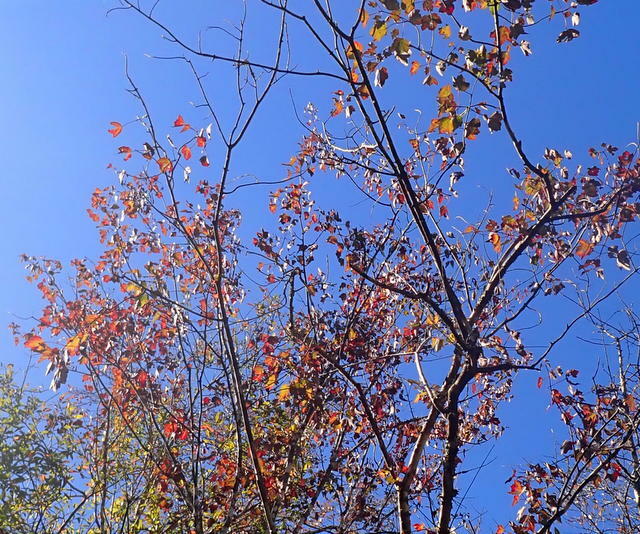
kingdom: Plantae
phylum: Tracheophyta
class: Magnoliopsida
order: Sapindales
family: Sapindaceae
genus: Acer
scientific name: Acer rubrum
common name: Red maple
